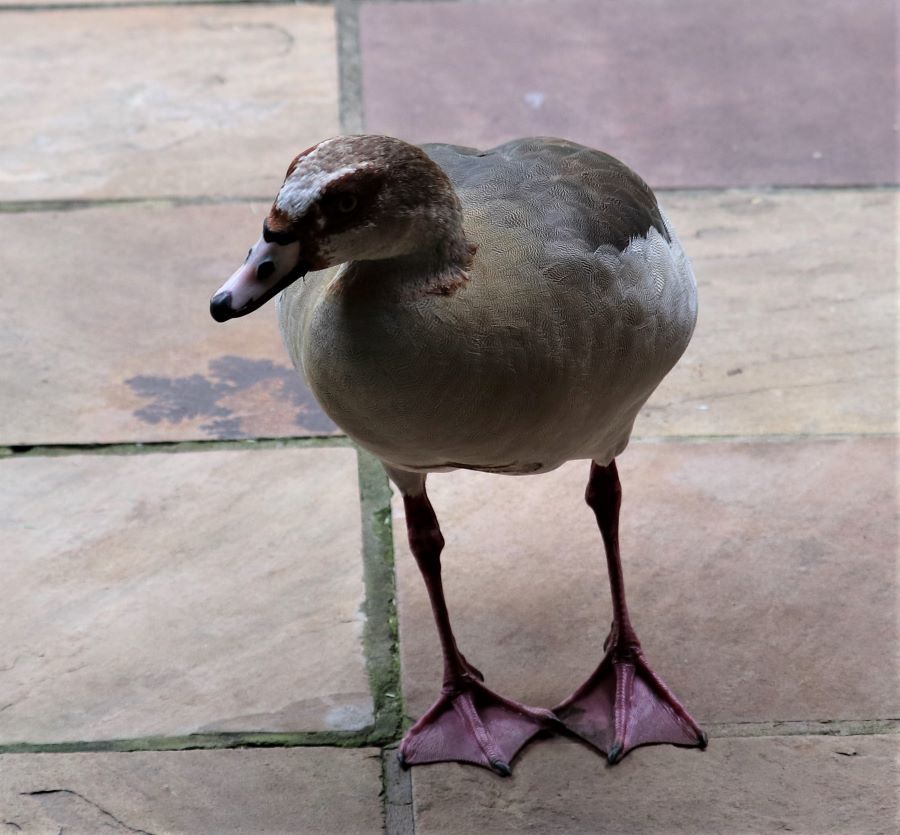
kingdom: Animalia
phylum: Chordata
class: Aves
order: Anseriformes
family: Anatidae
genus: Alopochen
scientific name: Alopochen aegyptiaca
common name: Egyptian goose
